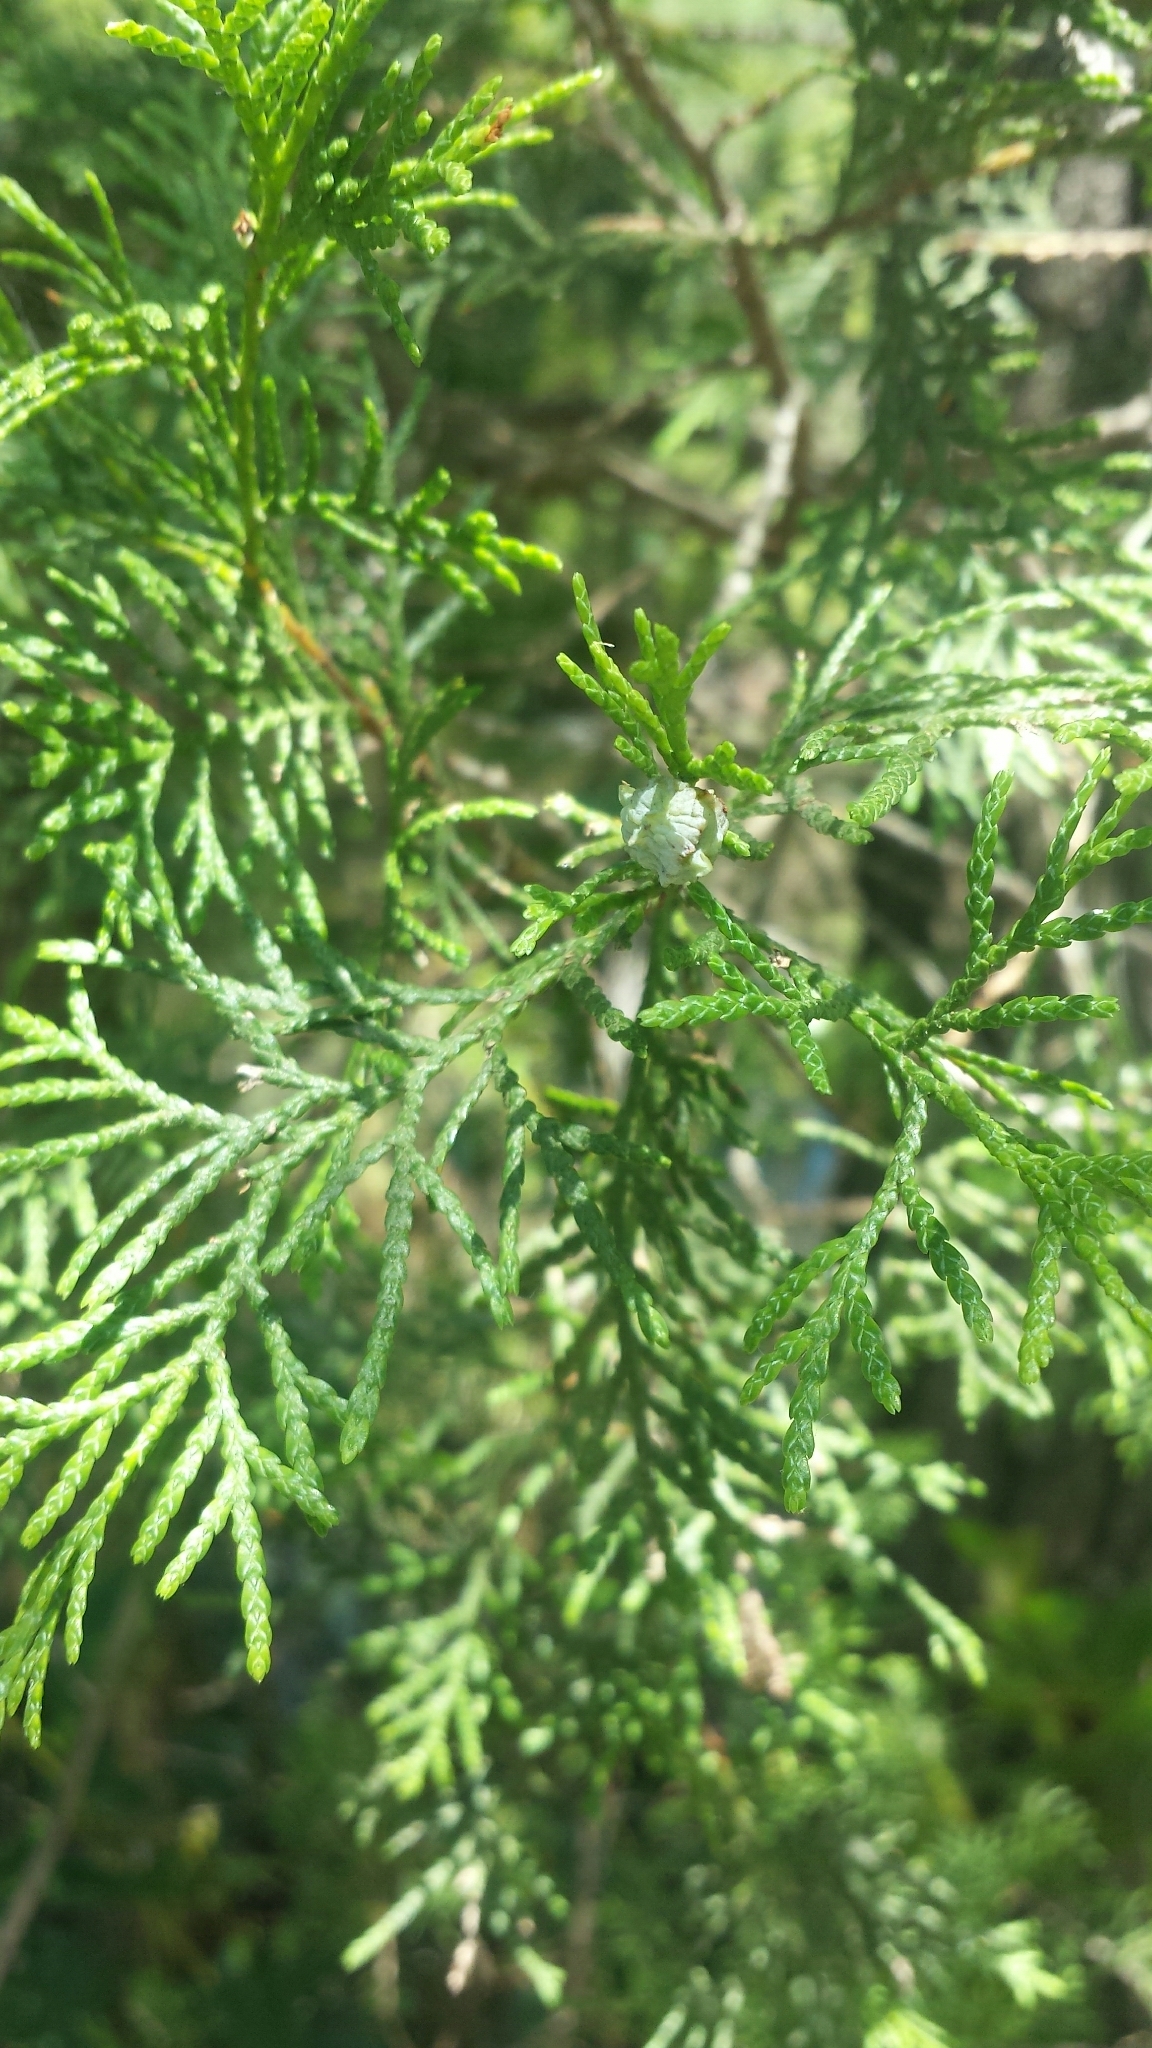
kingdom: Plantae
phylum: Tracheophyta
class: Pinopsida
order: Pinales
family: Cupressaceae
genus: Chamaecyparis
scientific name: Chamaecyparis thyoides
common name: Atlantic white cedar
